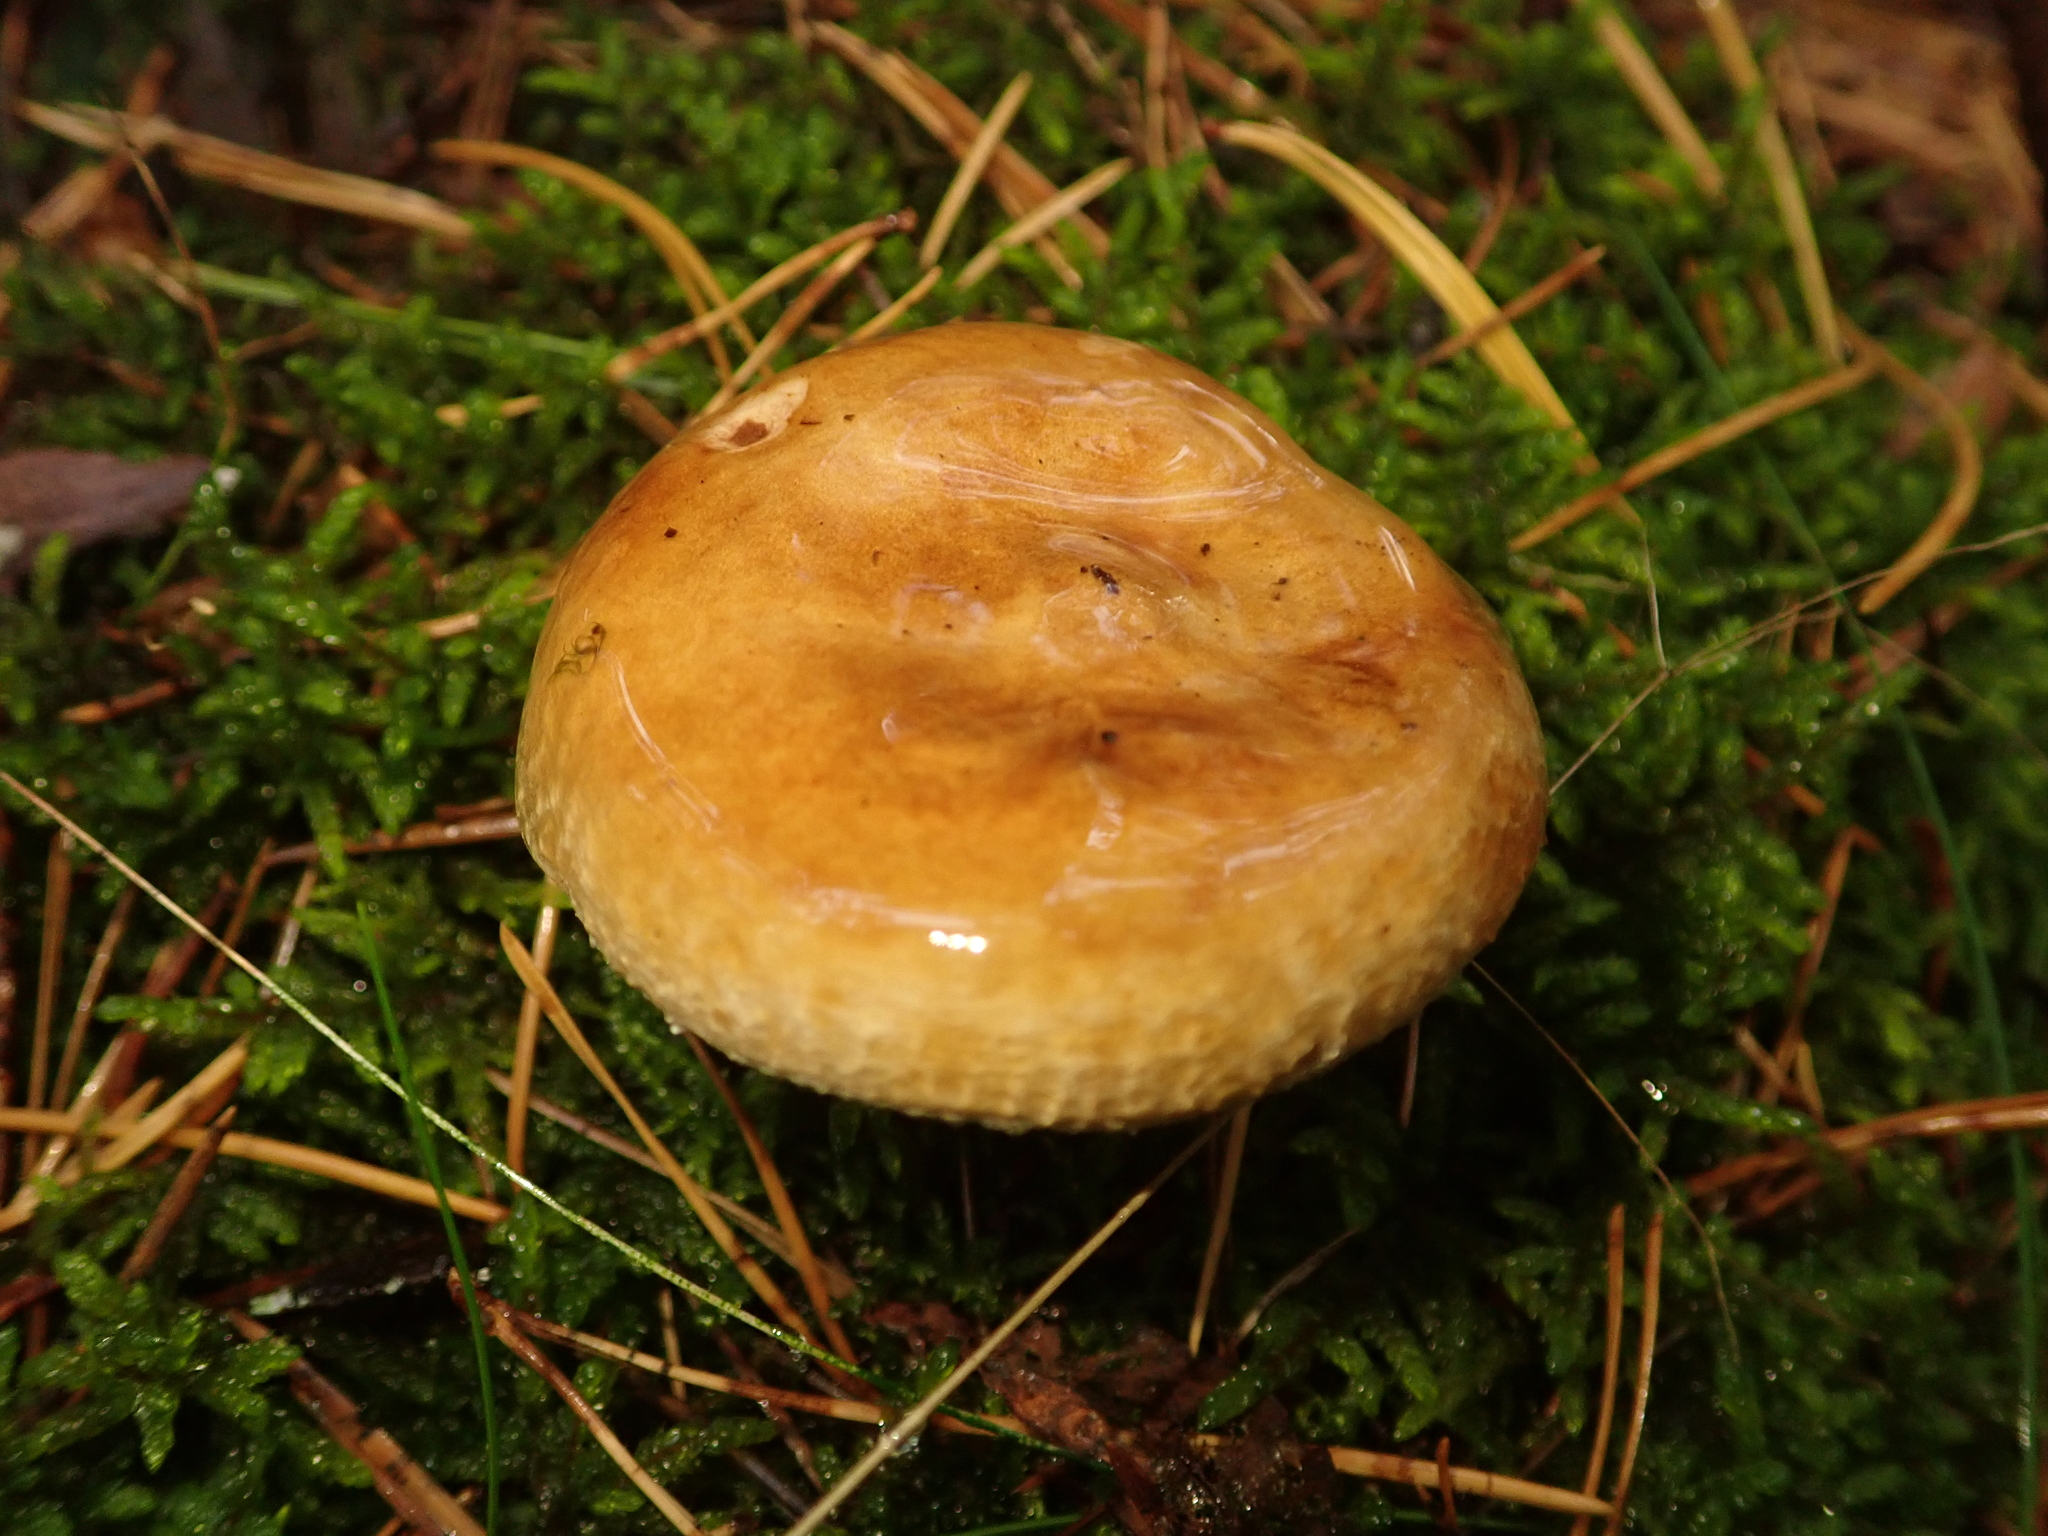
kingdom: Fungi
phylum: Basidiomycota
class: Agaricomycetes
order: Boletales
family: Paxillaceae
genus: Paxillus
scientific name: Paxillus involutus
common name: Brown roll rim
